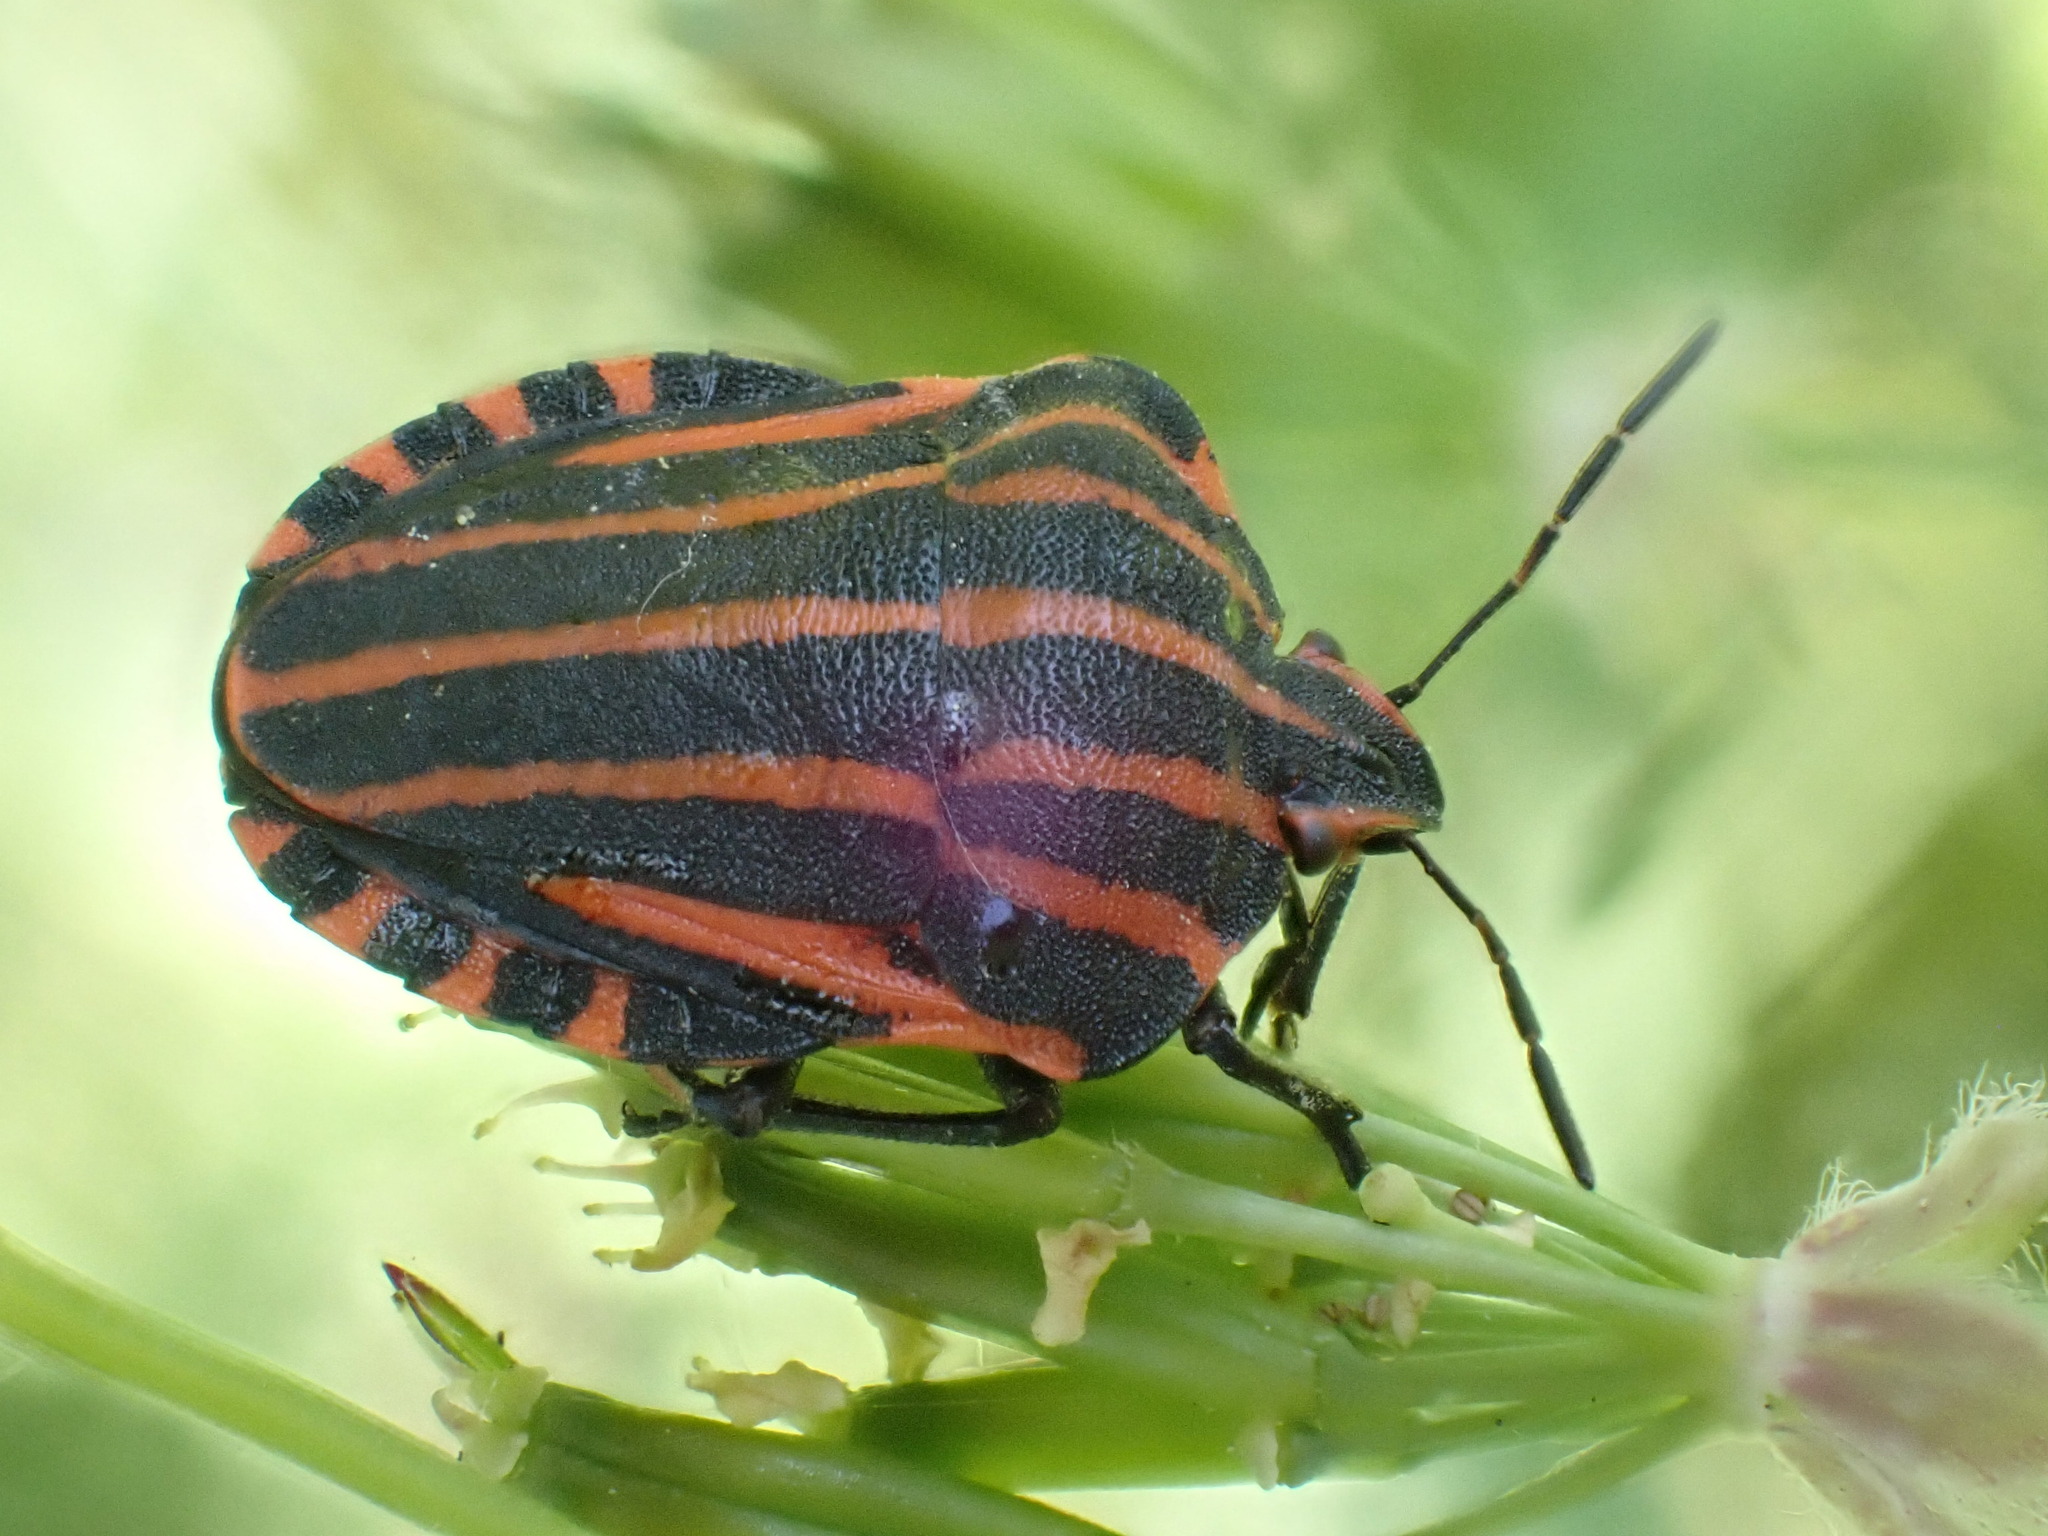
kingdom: Animalia
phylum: Arthropoda
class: Insecta
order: Hemiptera
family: Pentatomidae
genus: Graphosoma
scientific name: Graphosoma italicum
